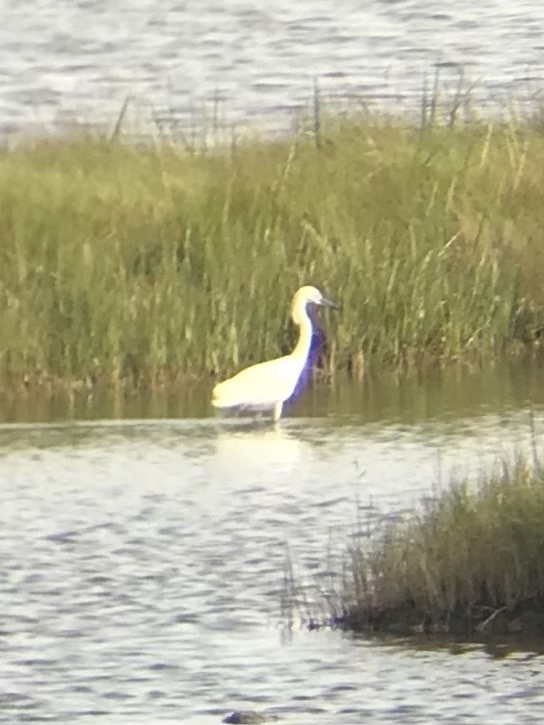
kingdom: Animalia
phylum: Chordata
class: Aves
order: Pelecaniformes
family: Ardeidae
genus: Egretta
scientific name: Egretta thula
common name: Snowy egret
